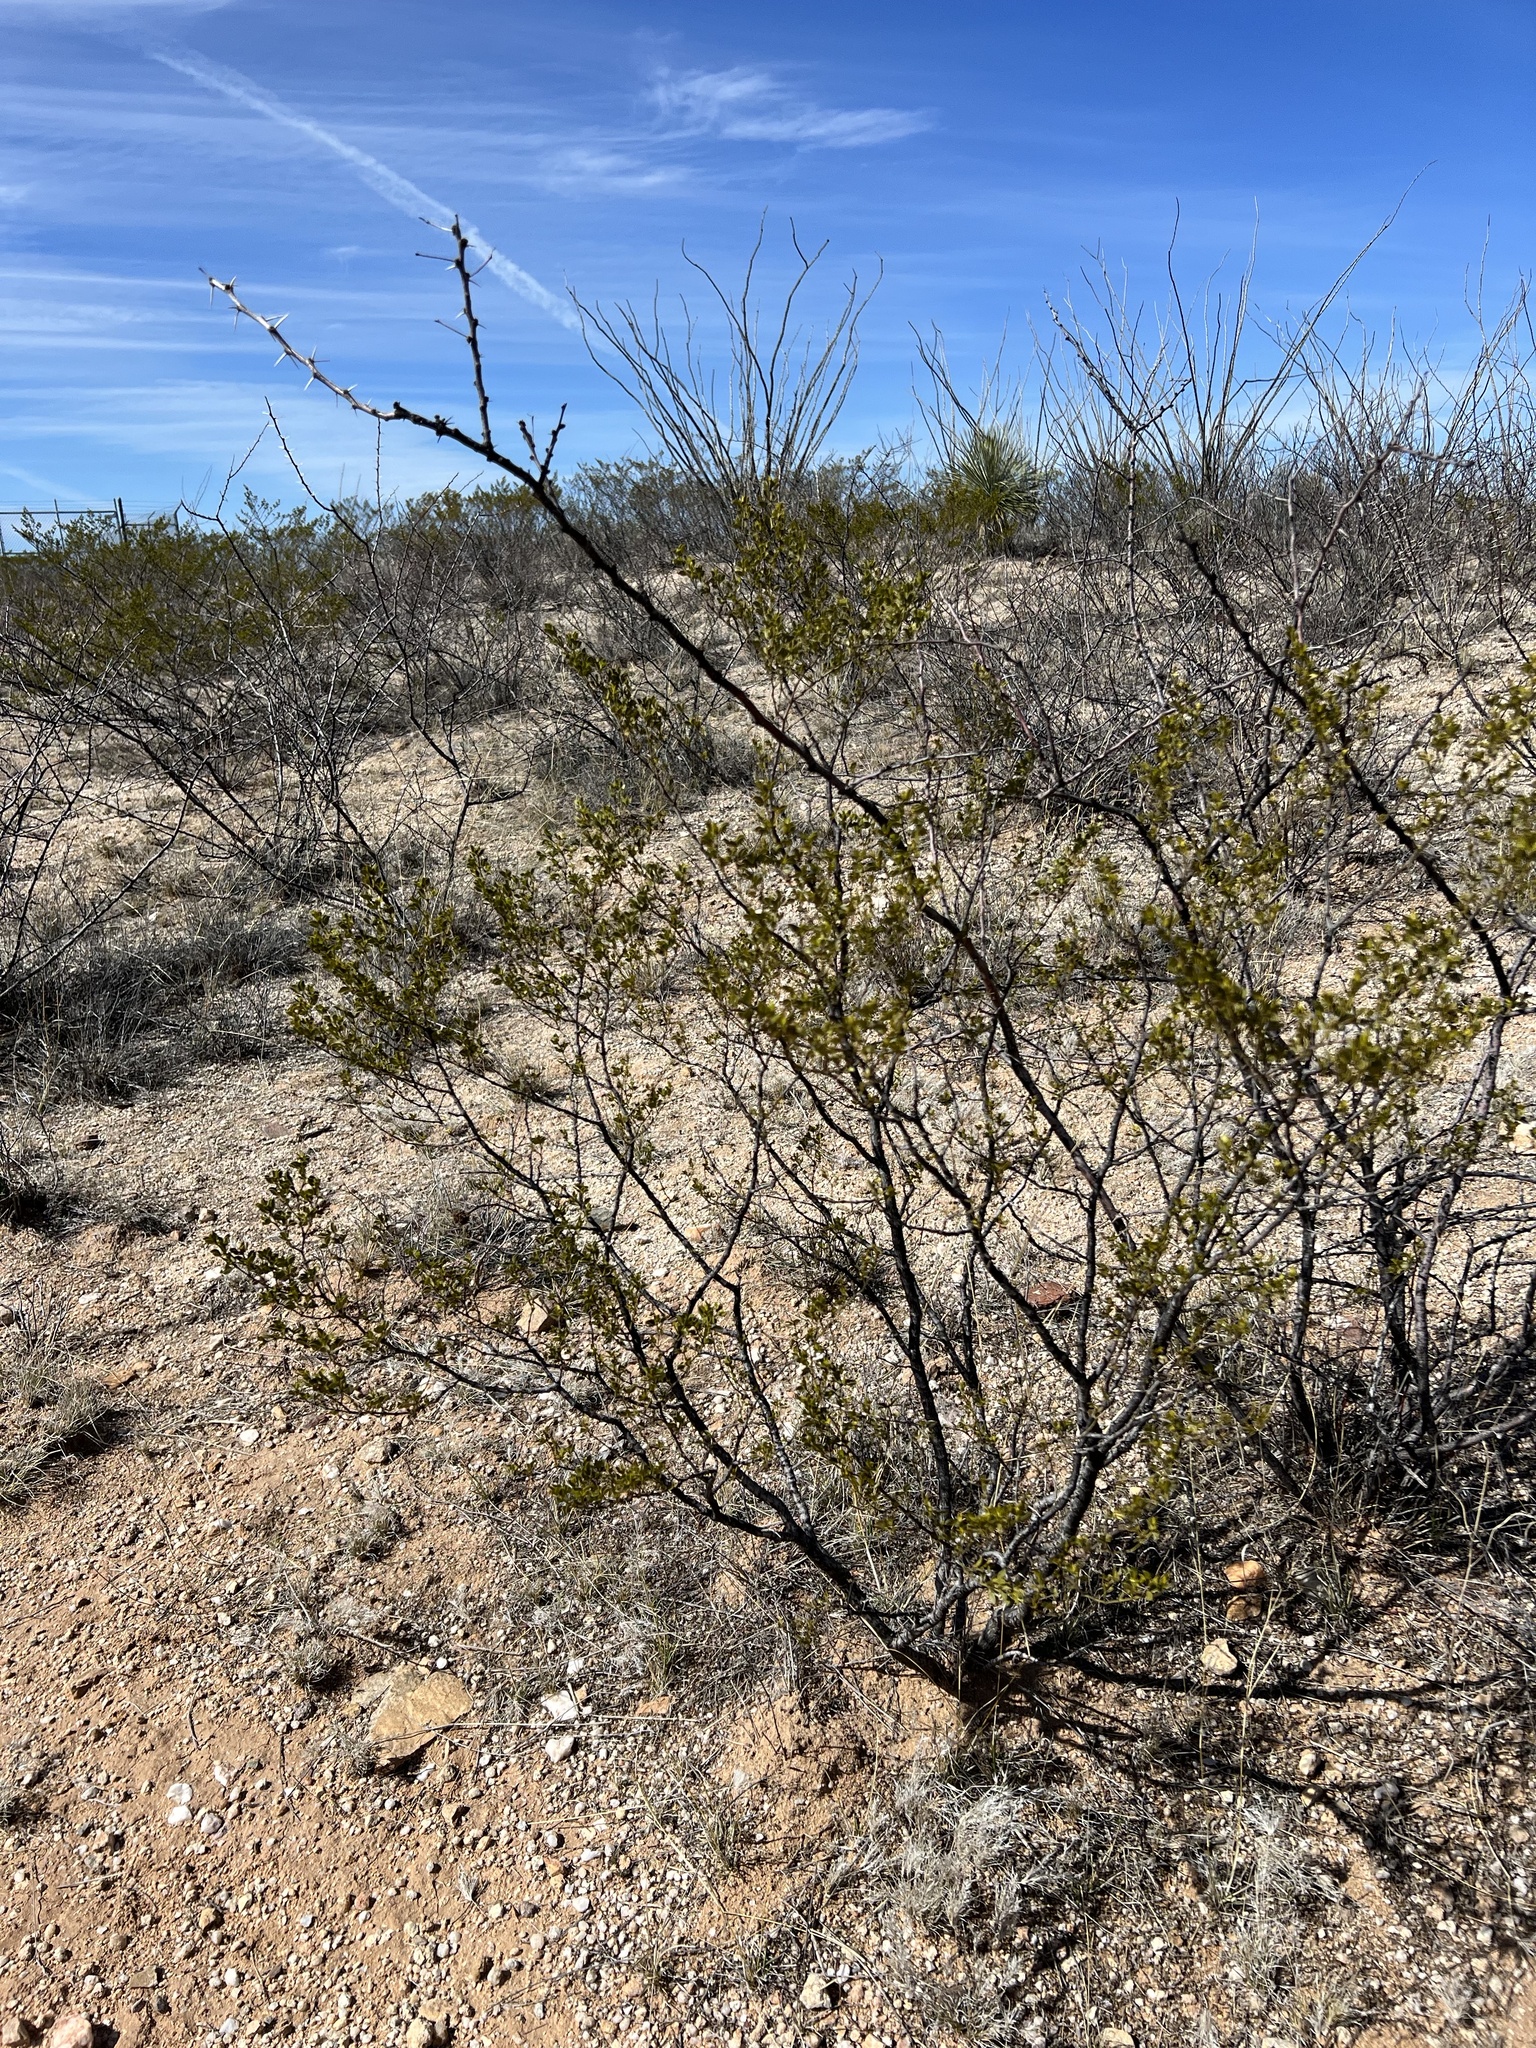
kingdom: Plantae
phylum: Tracheophyta
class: Magnoliopsida
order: Zygophyllales
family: Zygophyllaceae
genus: Larrea
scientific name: Larrea tridentata
